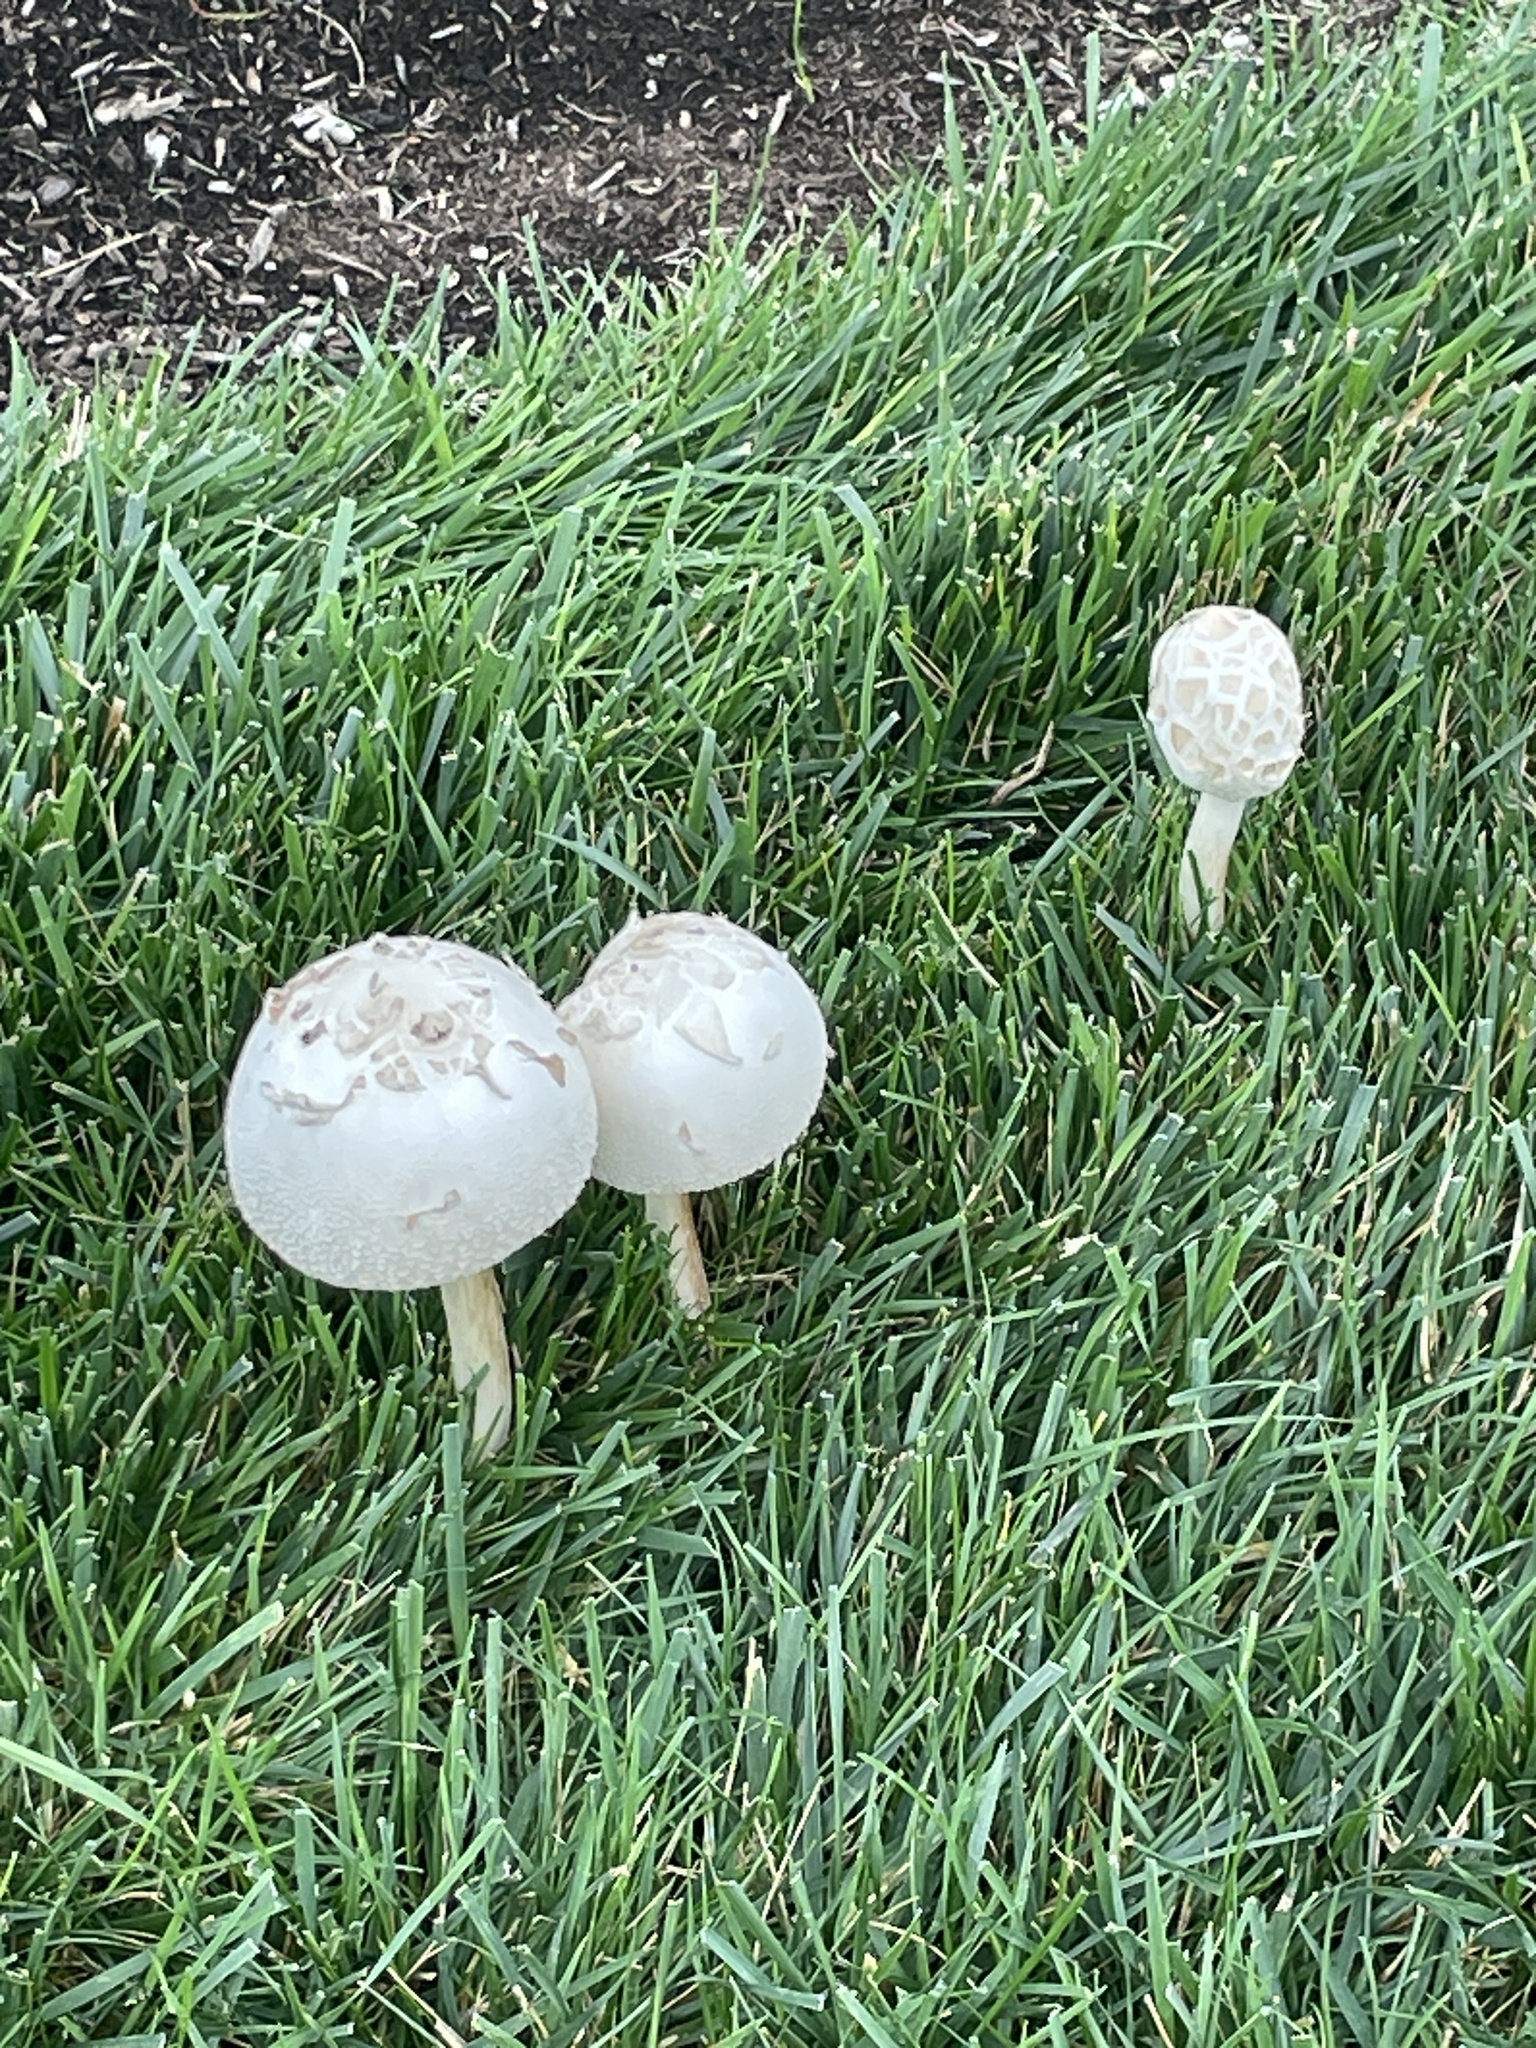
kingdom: Fungi
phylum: Basidiomycota
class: Agaricomycetes
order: Agaricales
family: Agaricaceae
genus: Chlorophyllum
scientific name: Chlorophyllum molybdites
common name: False parasol
